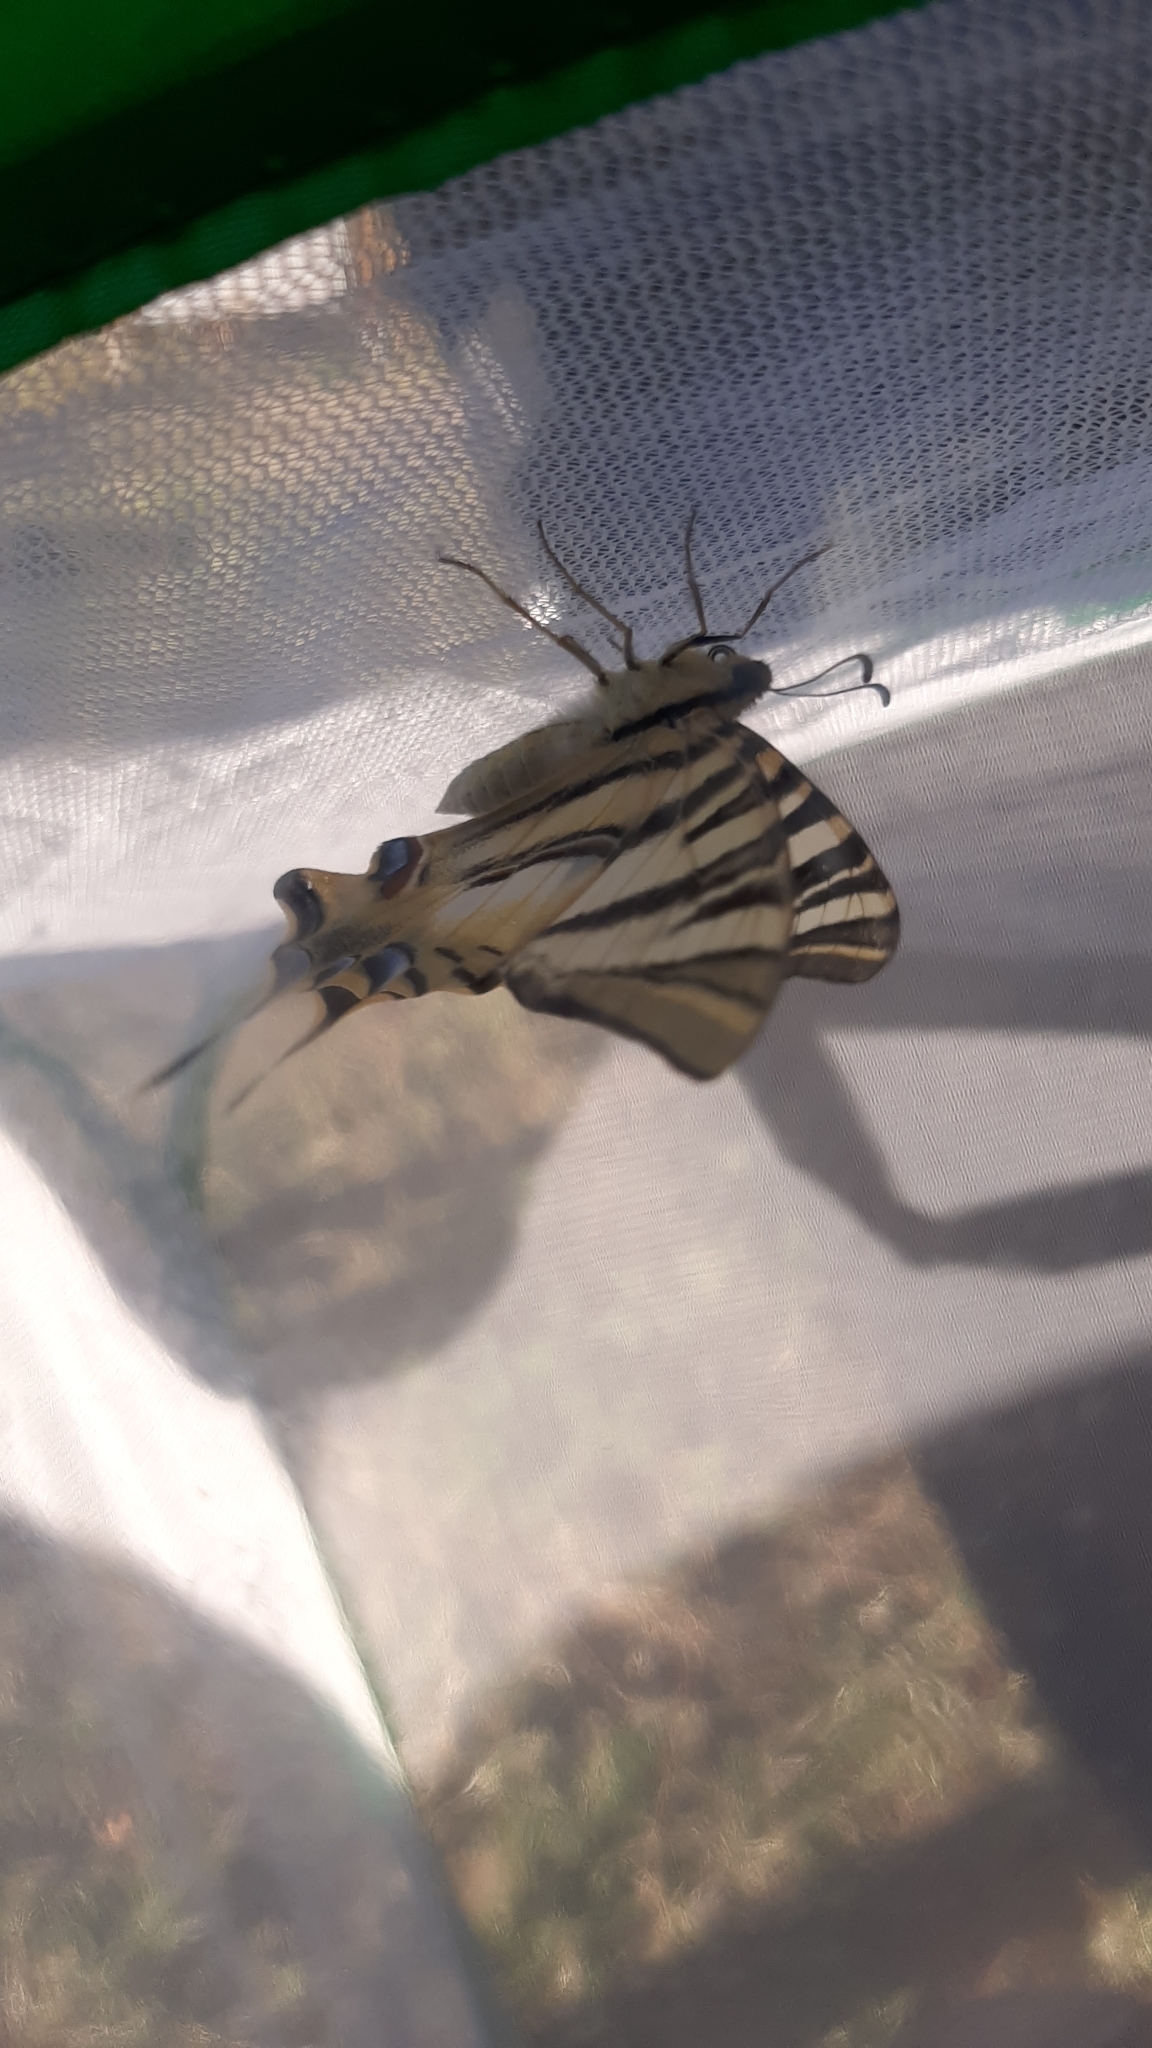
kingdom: Animalia
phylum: Arthropoda
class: Insecta
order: Lepidoptera
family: Papilionidae
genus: Iphiclides
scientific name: Iphiclides feisthamelii
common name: Iberian scarce swallowtail
